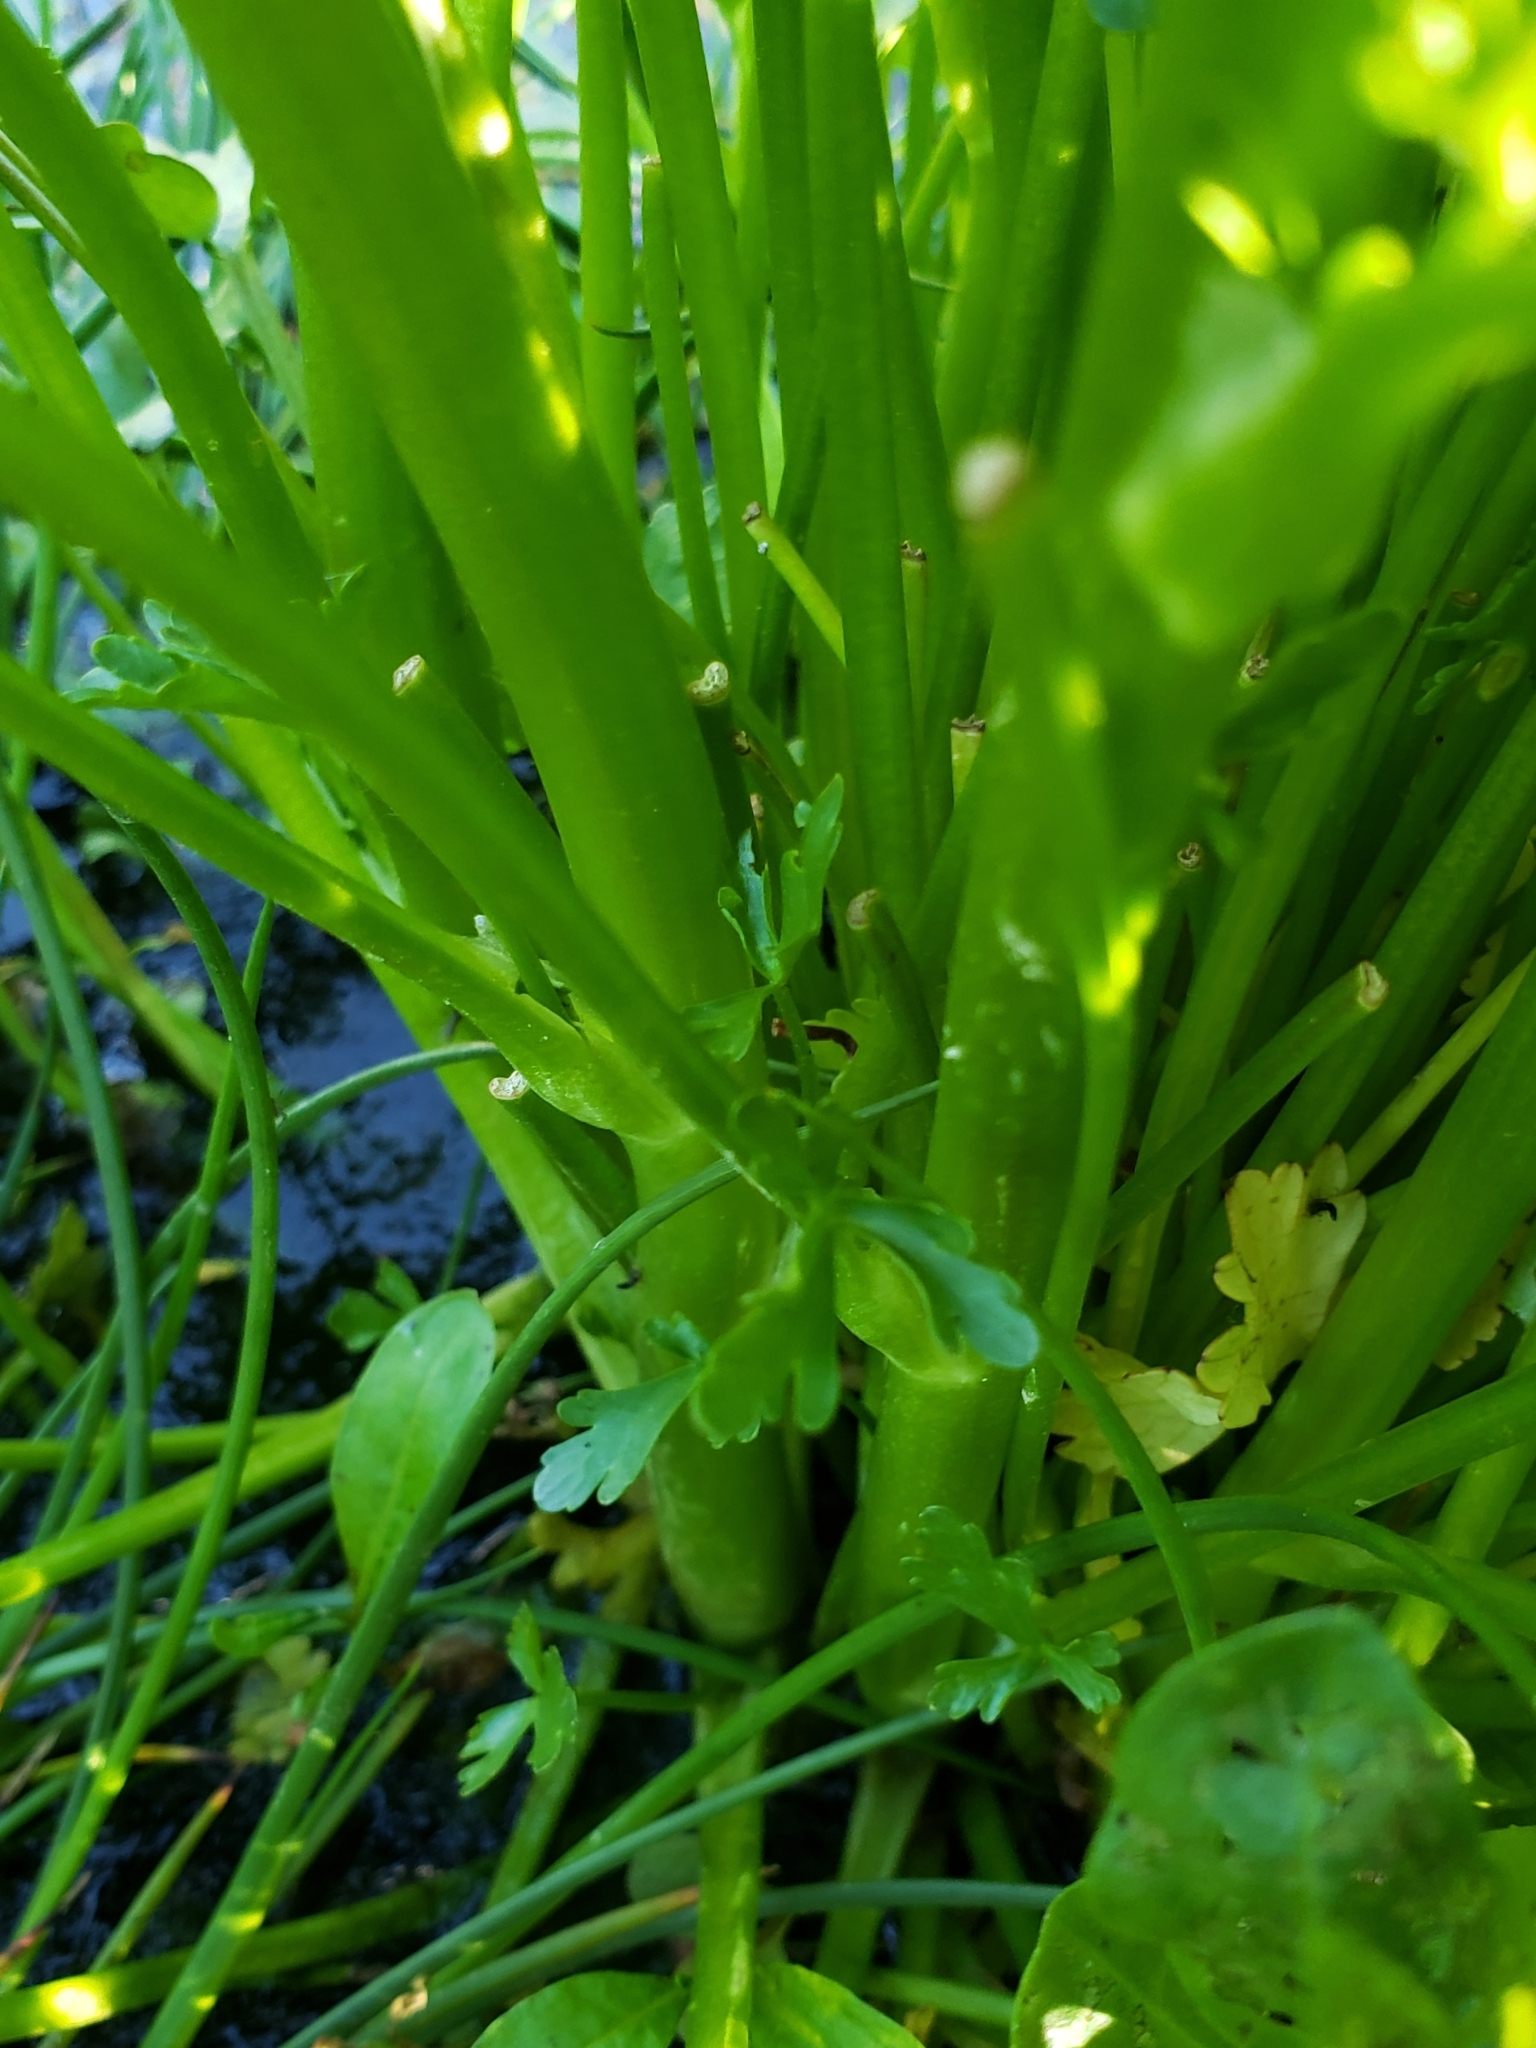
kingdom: Plantae
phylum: Tracheophyta
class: Magnoliopsida
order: Ranunculales
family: Ranunculaceae
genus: Ranunculus
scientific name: Ranunculus sceleratus
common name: Celery-leaved buttercup
